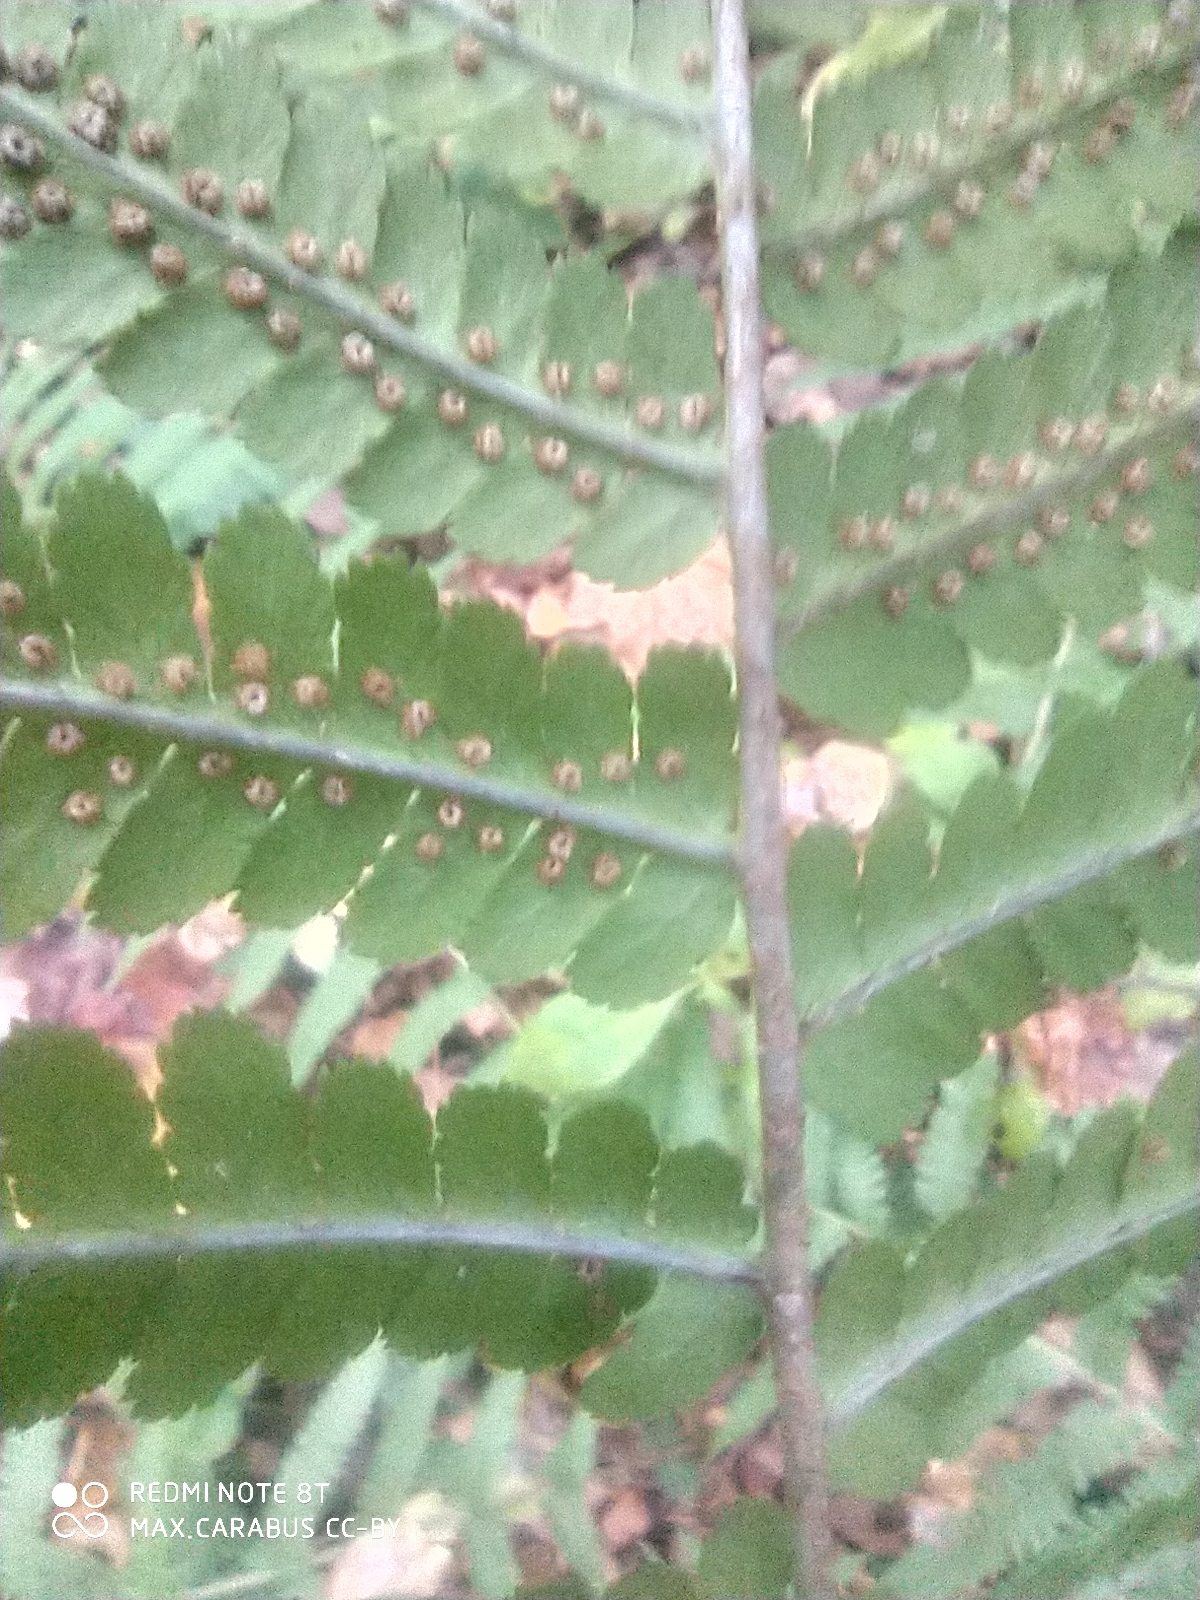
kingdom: Plantae
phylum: Tracheophyta
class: Polypodiopsida
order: Polypodiales
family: Dryopteridaceae
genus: Dryopteris
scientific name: Dryopteris filix-mas
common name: Male fern
